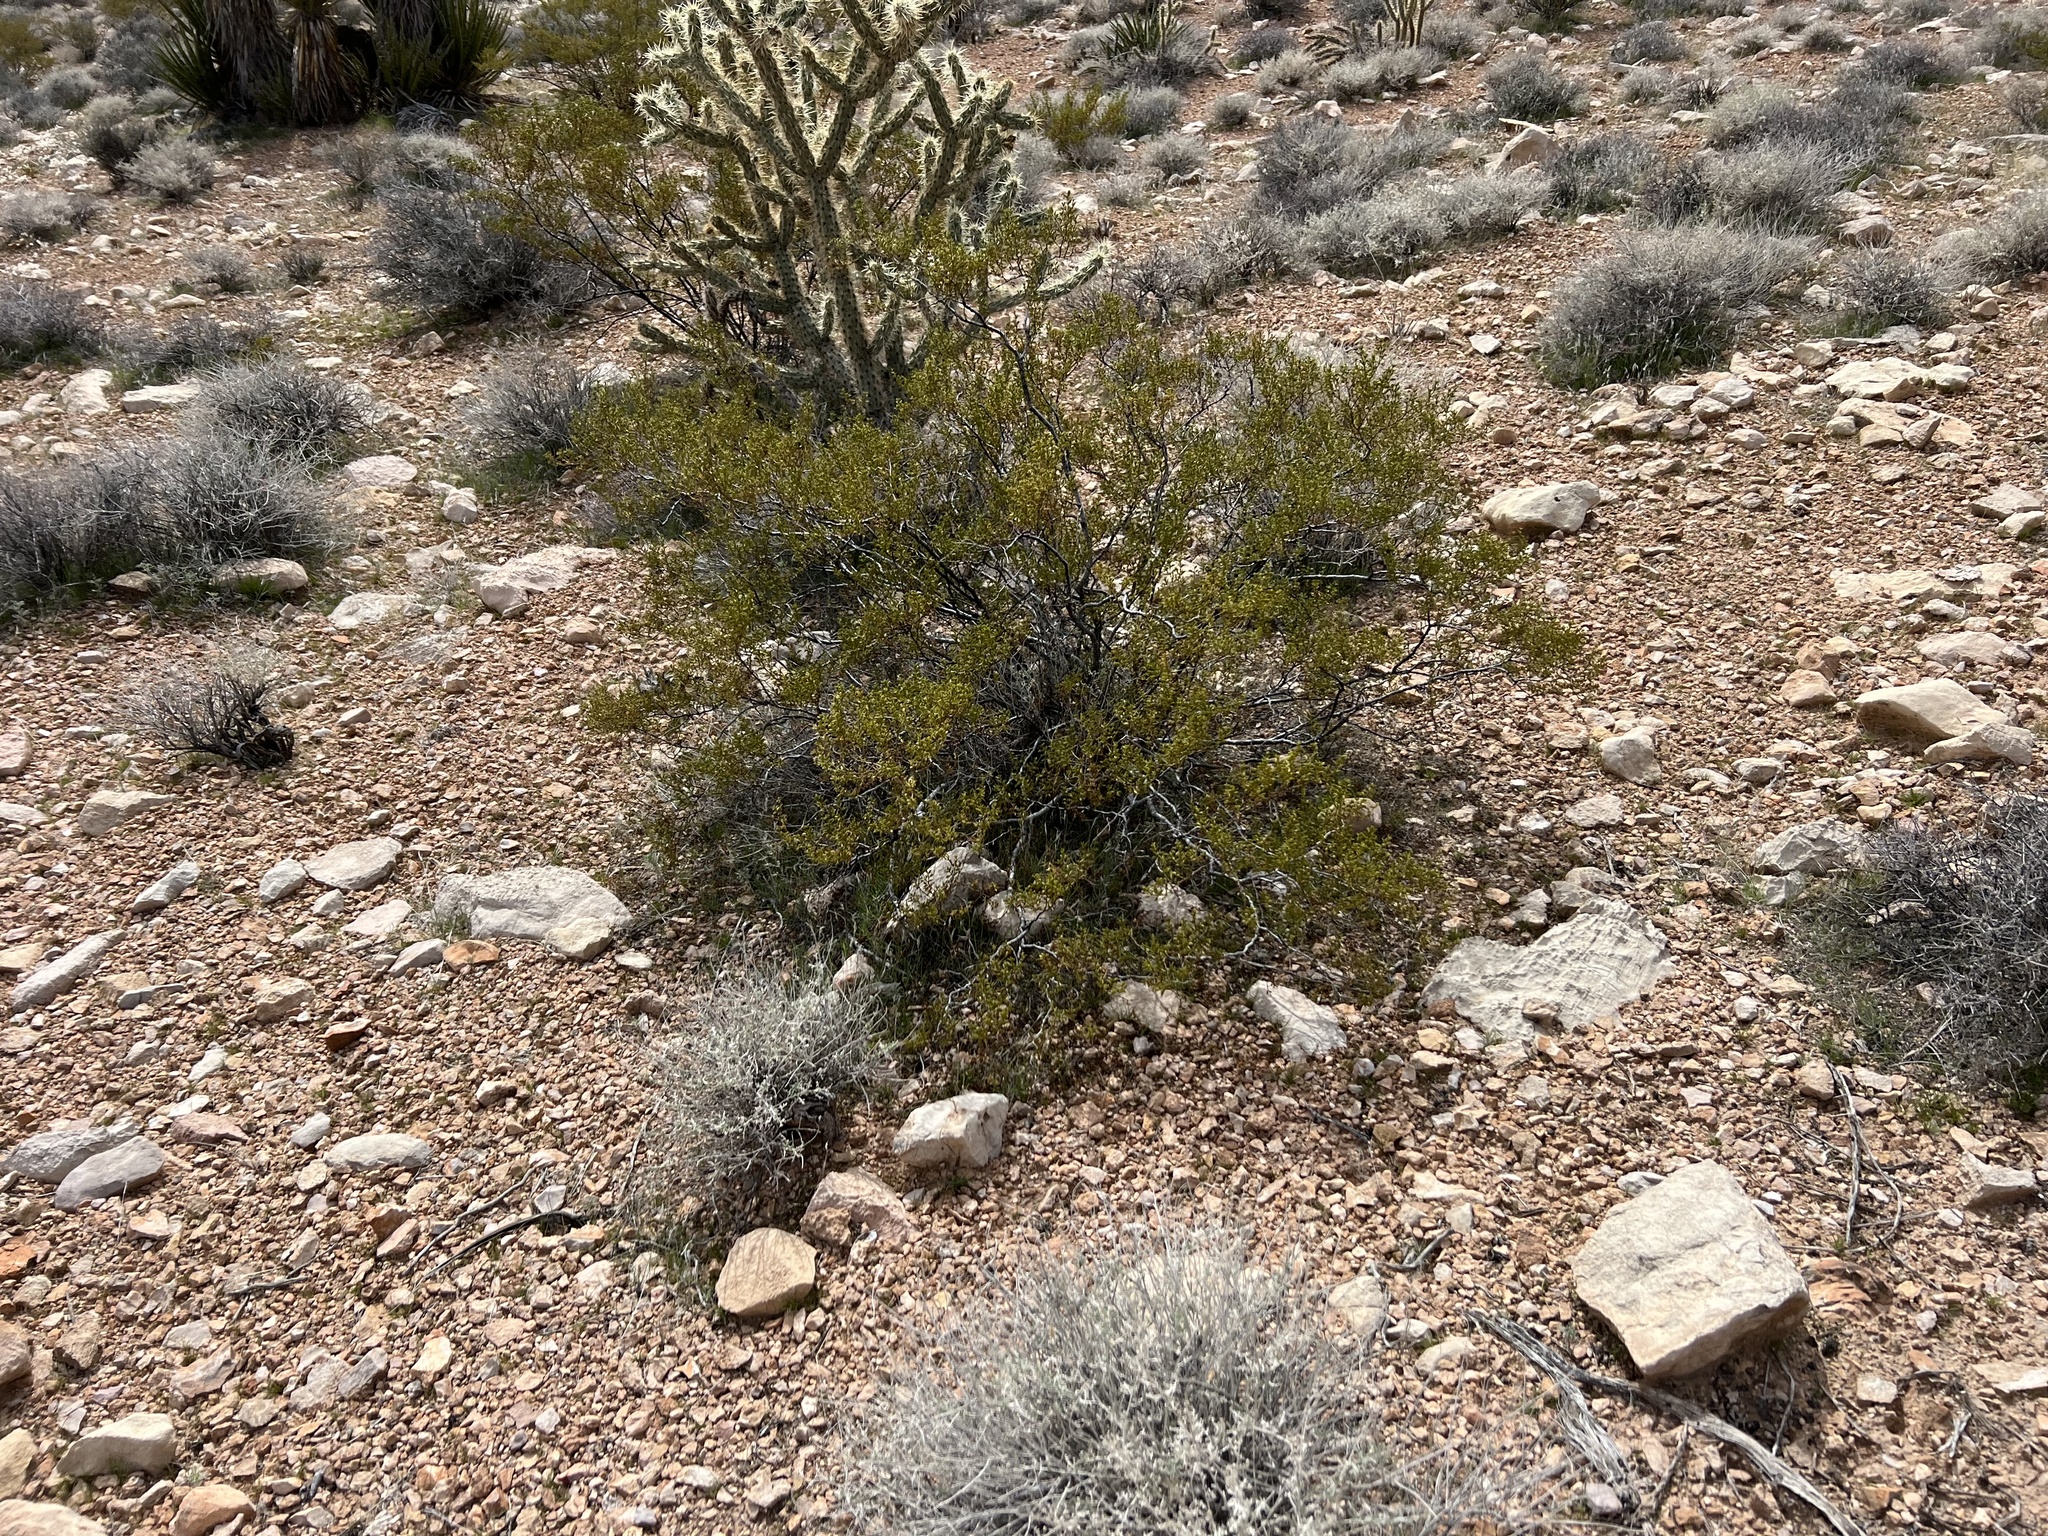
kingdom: Plantae
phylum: Tracheophyta
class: Magnoliopsida
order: Zygophyllales
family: Zygophyllaceae
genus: Larrea
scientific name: Larrea tridentata
